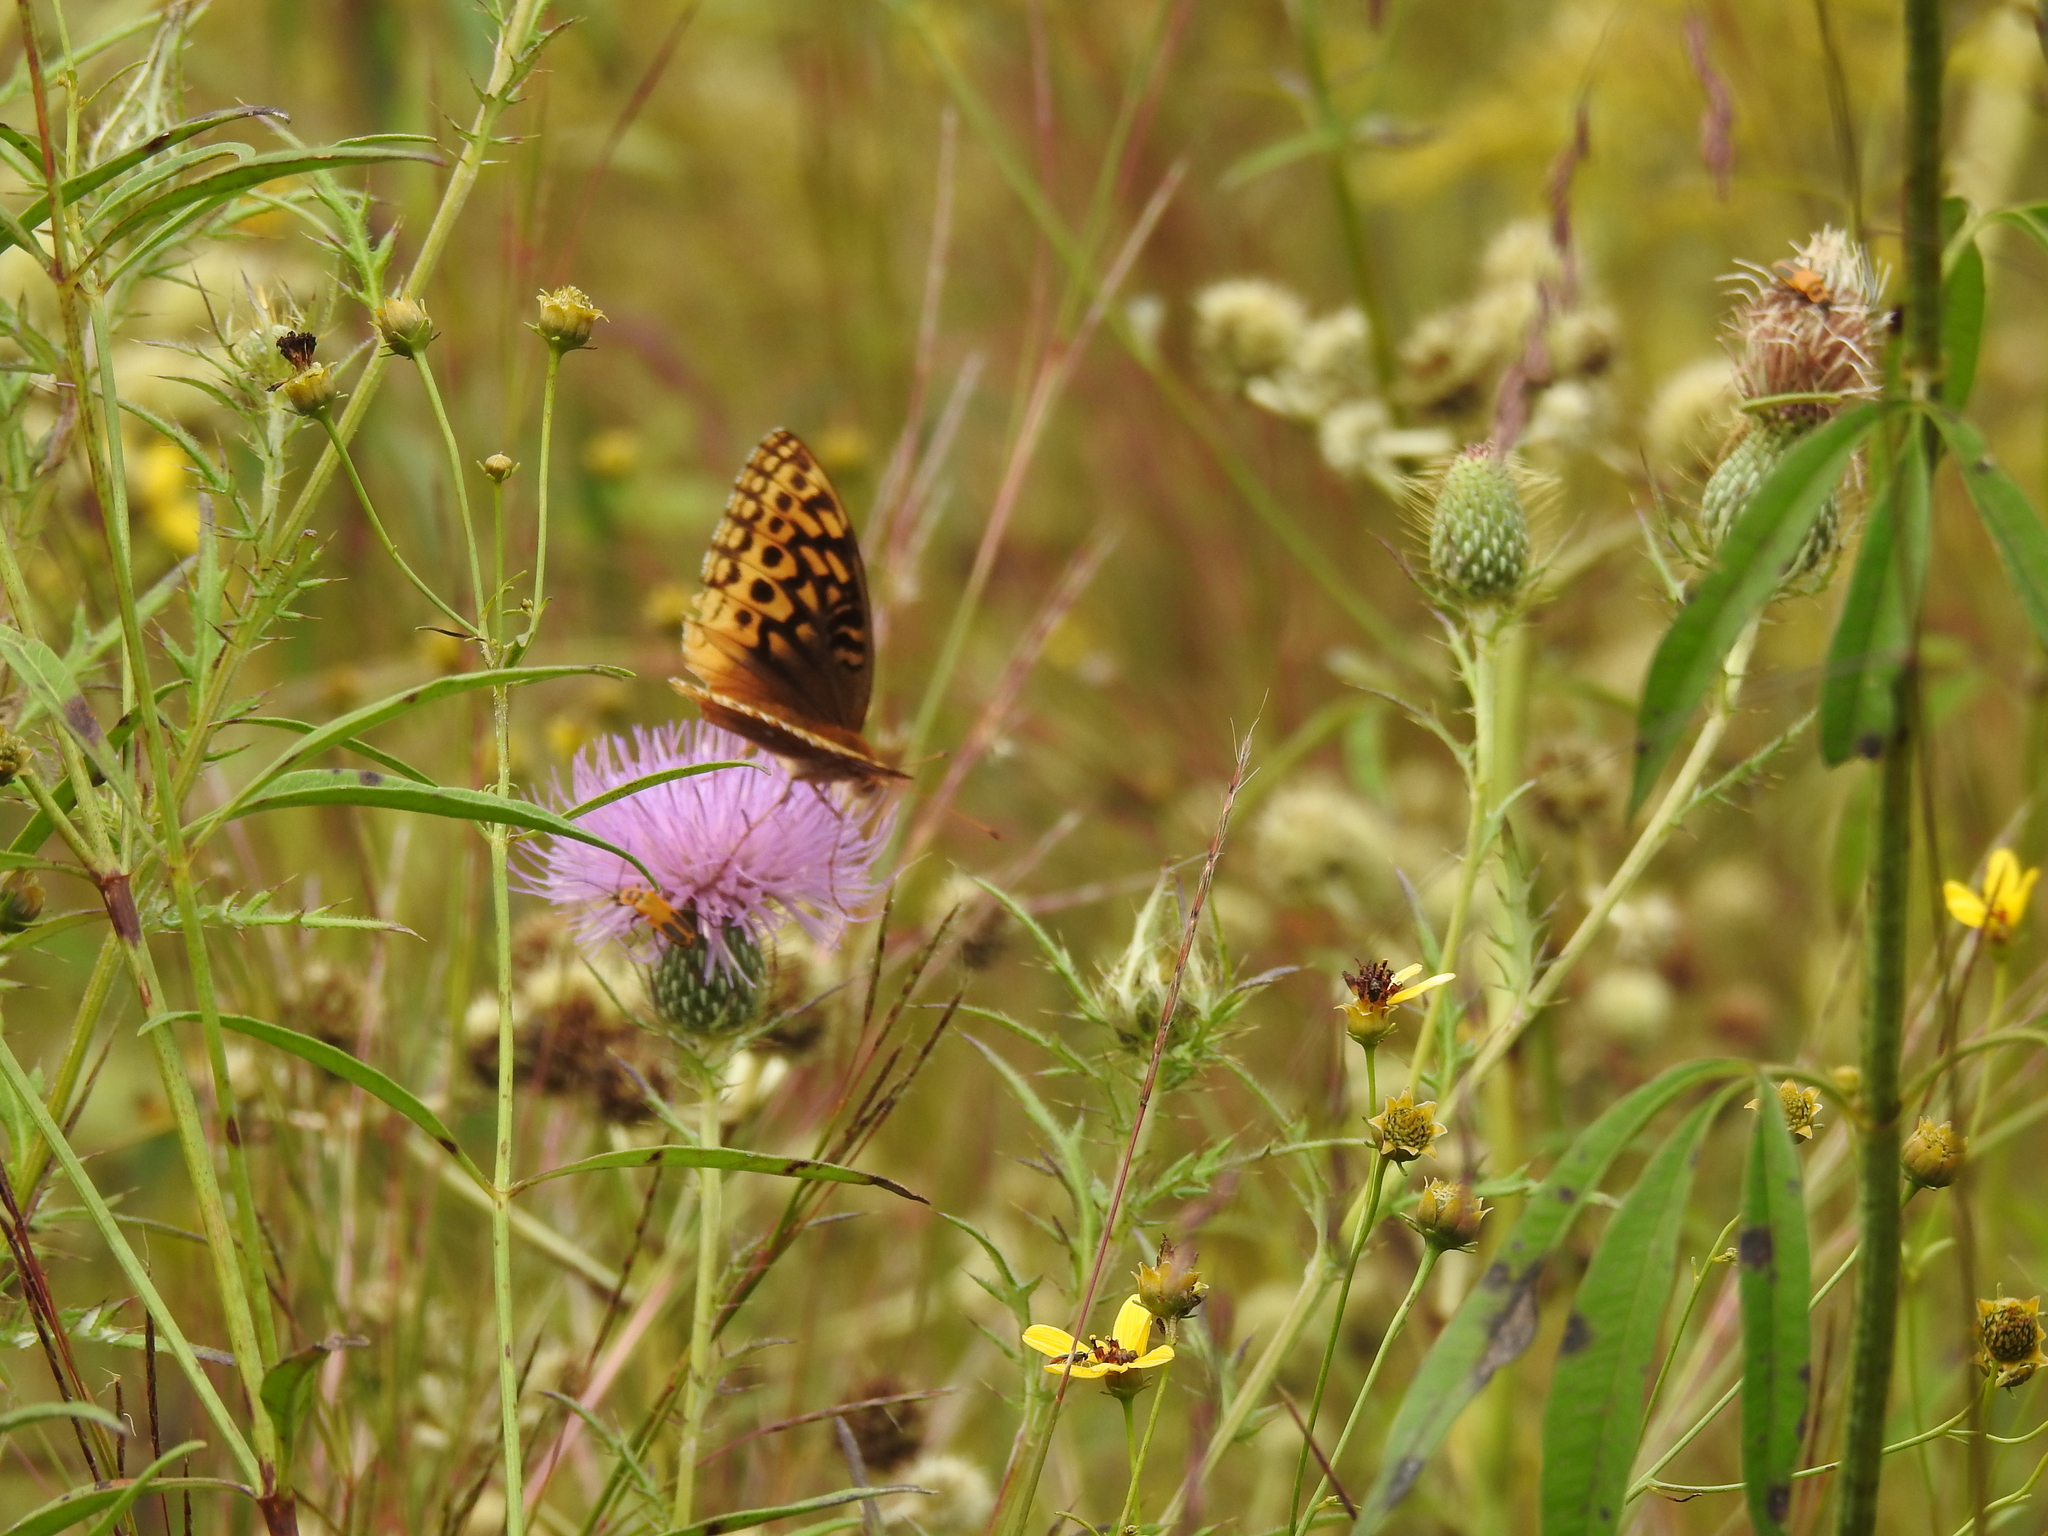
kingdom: Plantae
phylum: Tracheophyta
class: Magnoliopsida
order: Asterales
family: Asteraceae
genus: Cirsium
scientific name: Cirsium discolor
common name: Field thistle
